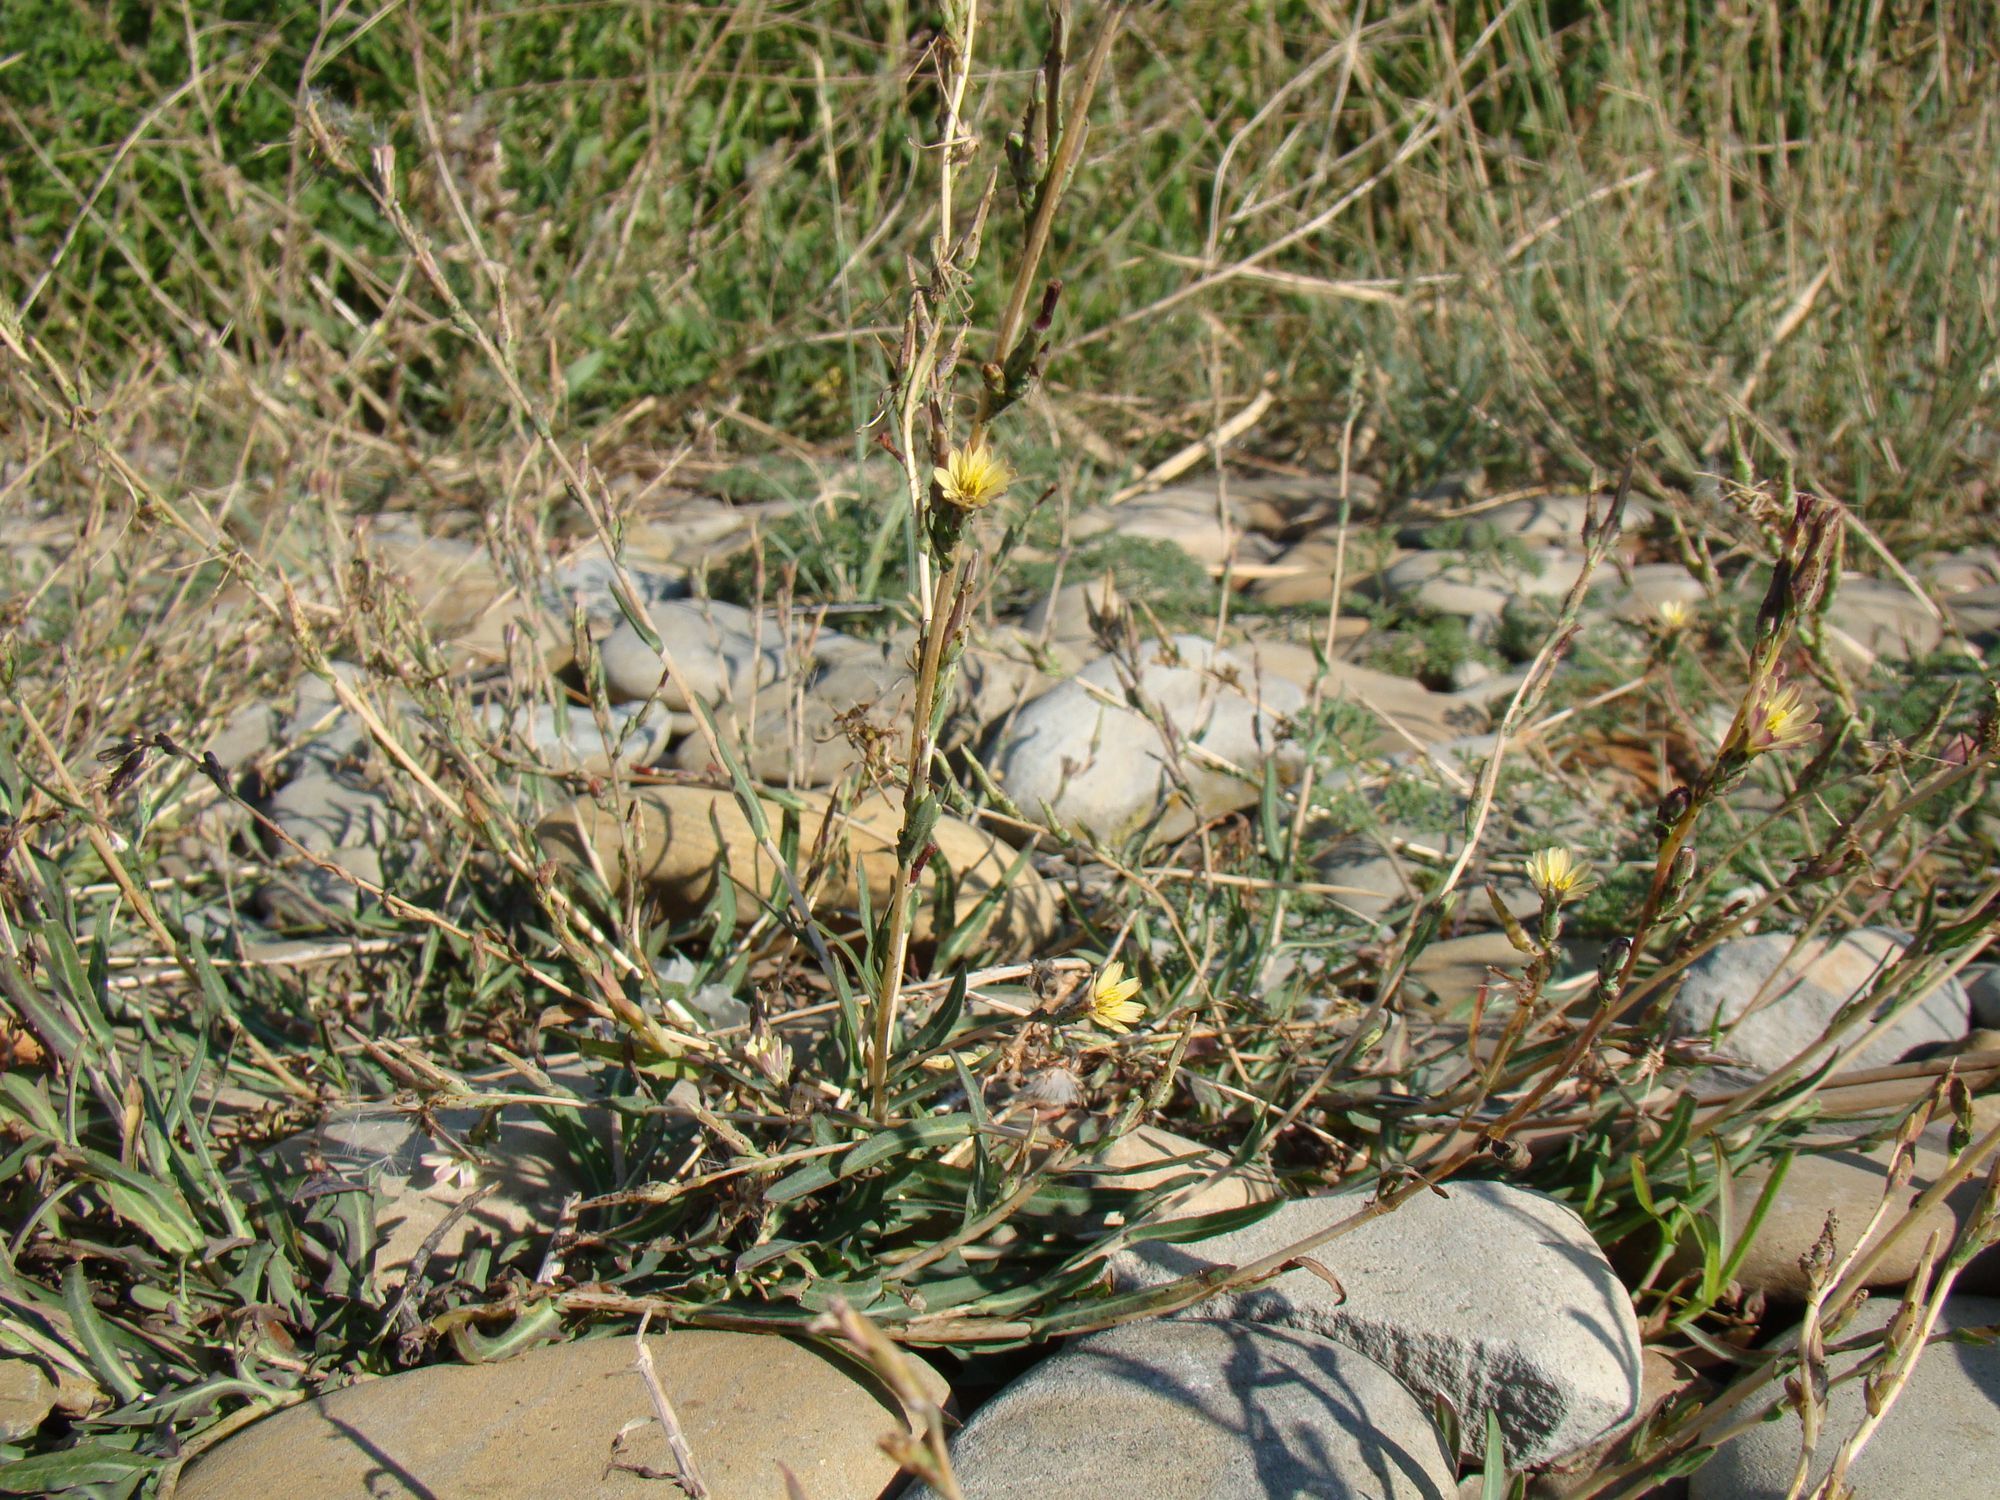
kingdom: Plantae
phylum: Tracheophyta
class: Magnoliopsida
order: Asterales
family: Asteraceae
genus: Lactuca
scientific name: Lactuca saligna
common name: Wild lettuce
